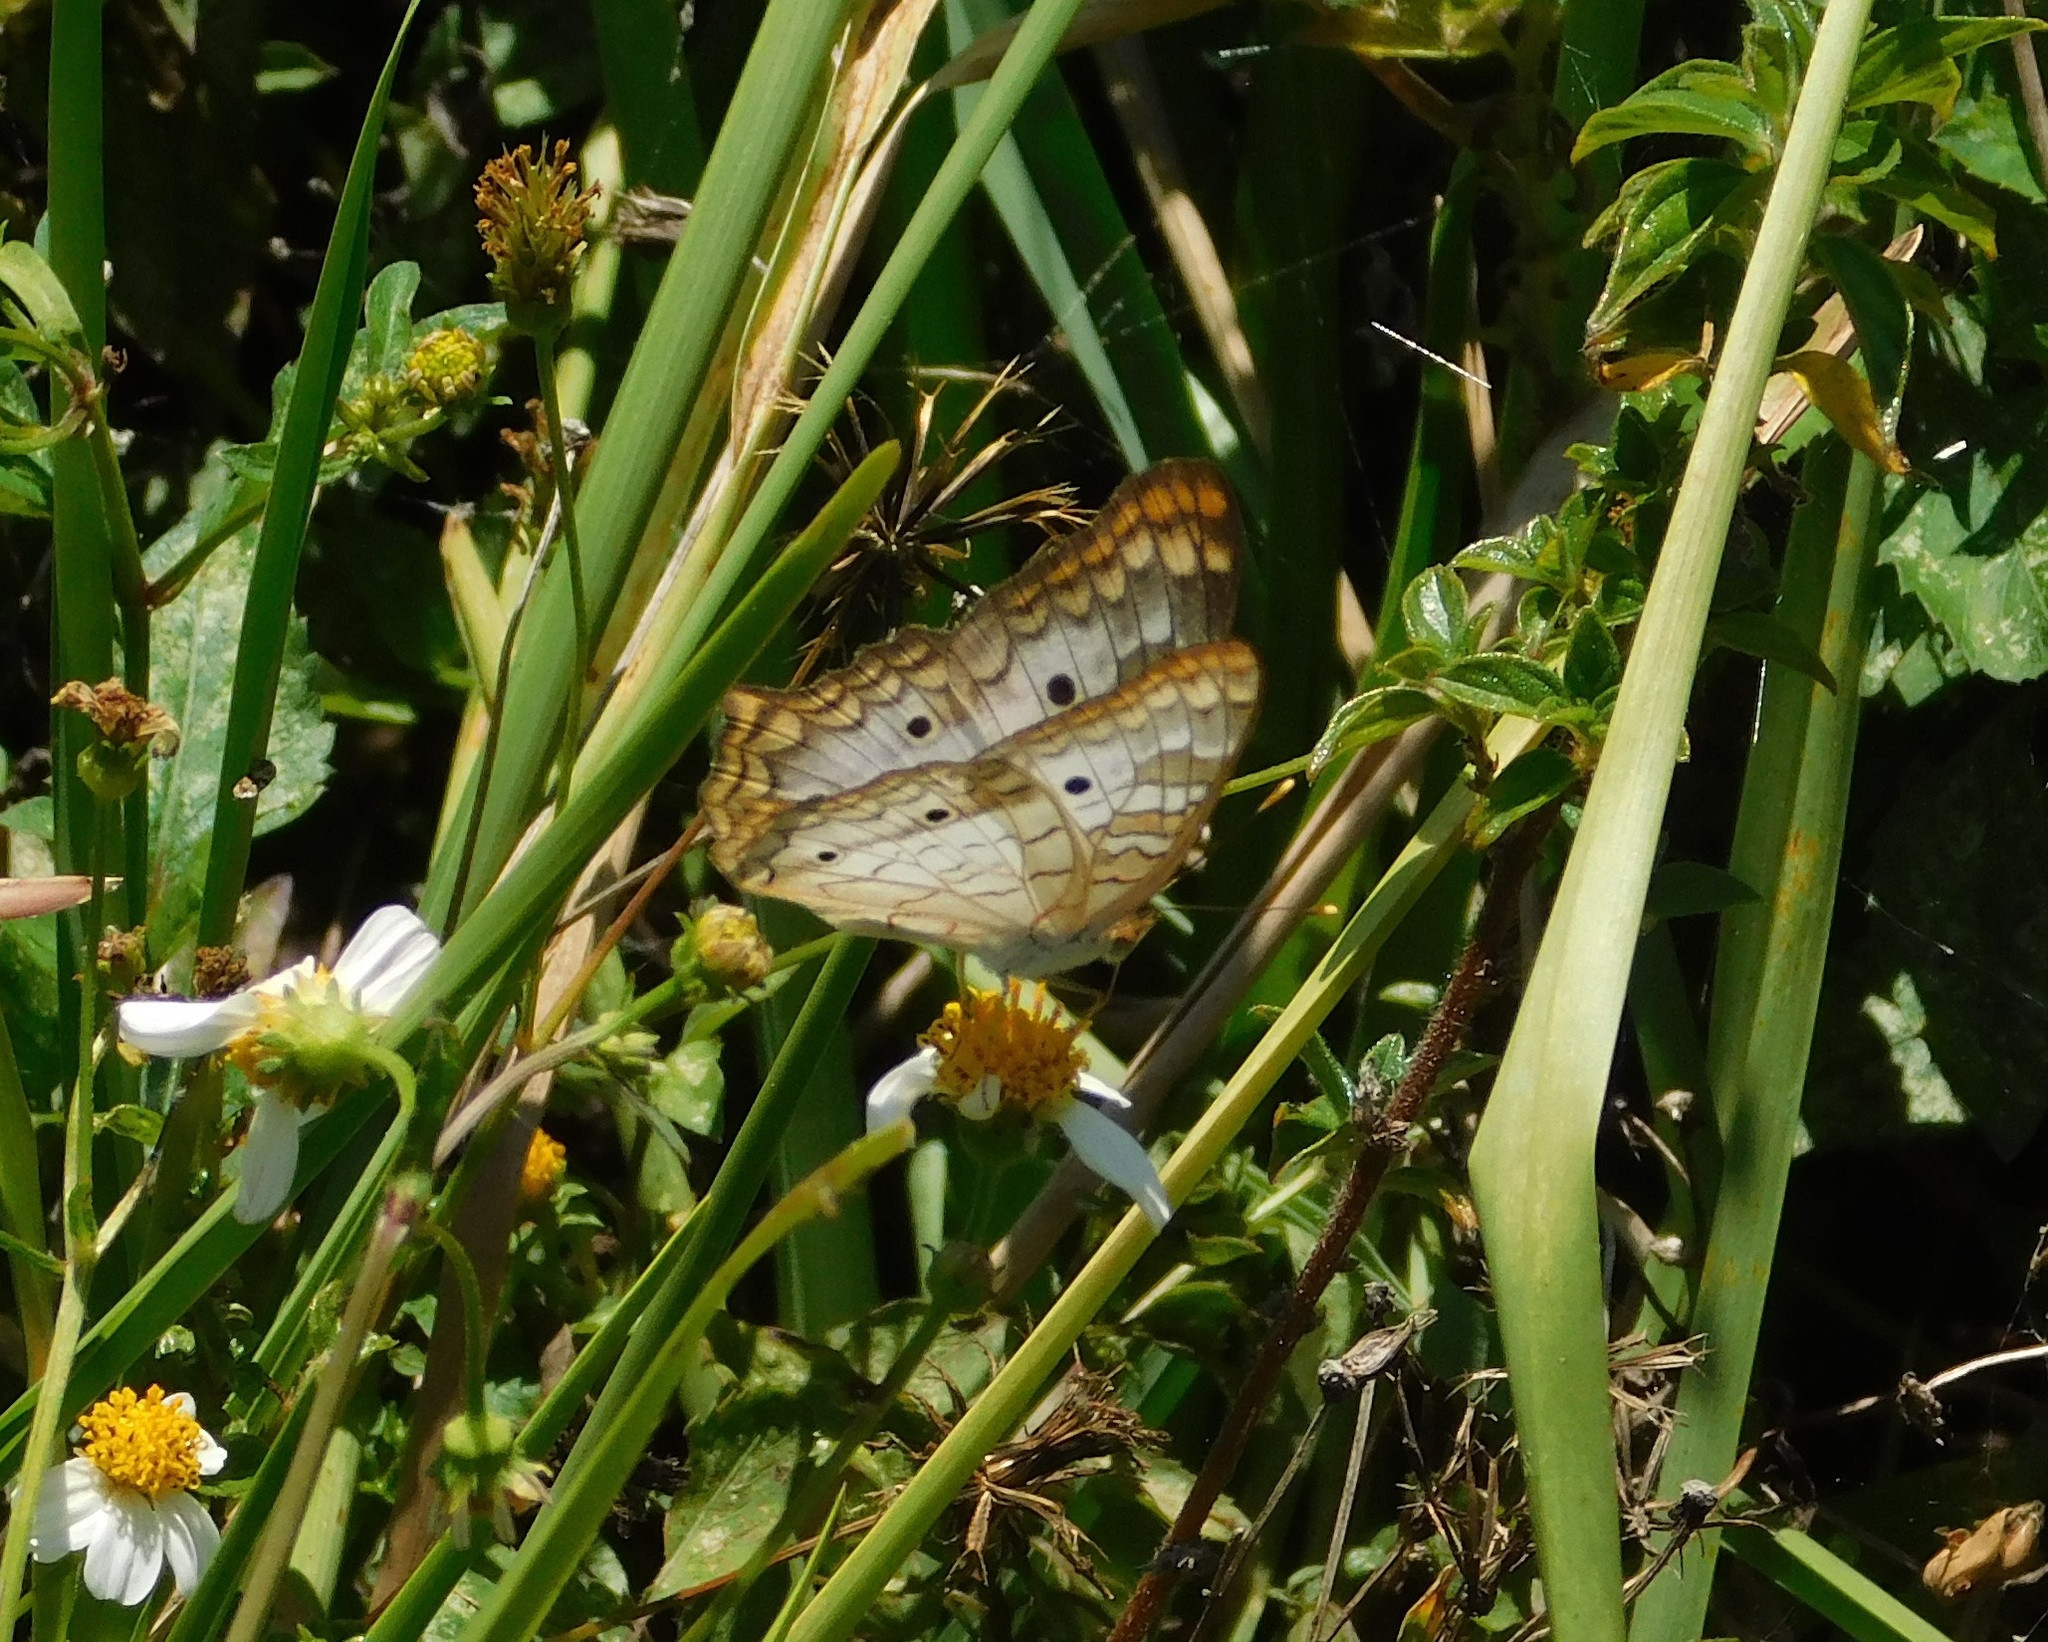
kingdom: Animalia
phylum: Arthropoda
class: Insecta
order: Lepidoptera
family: Nymphalidae
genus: Anartia
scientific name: Anartia jatrophae
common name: White peacock
